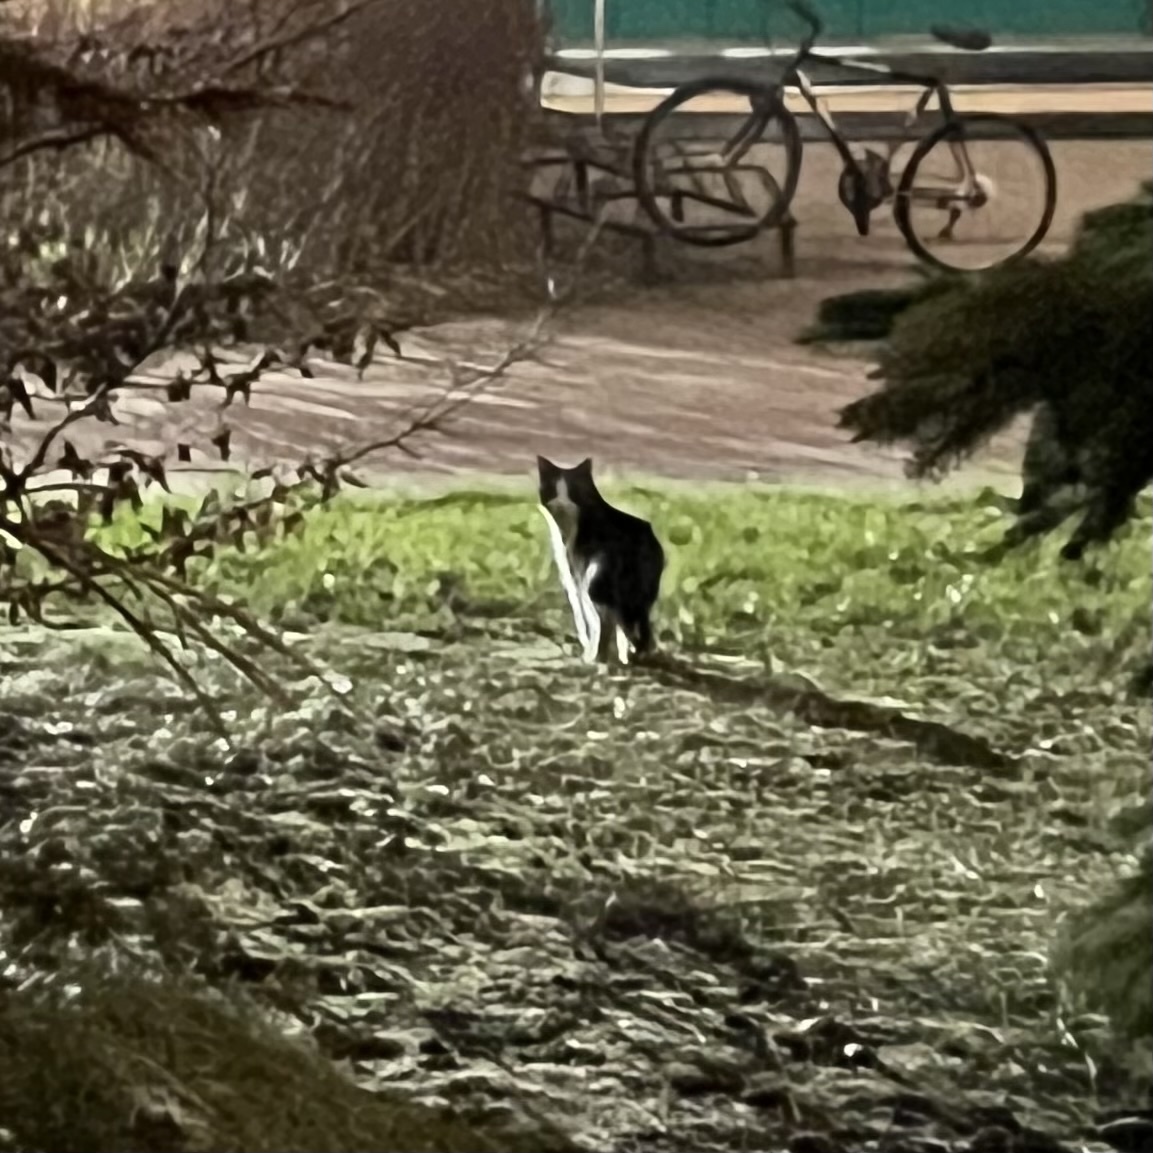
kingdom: Animalia
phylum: Chordata
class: Mammalia
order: Carnivora
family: Felidae
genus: Felis
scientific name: Felis catus
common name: Domestic cat
